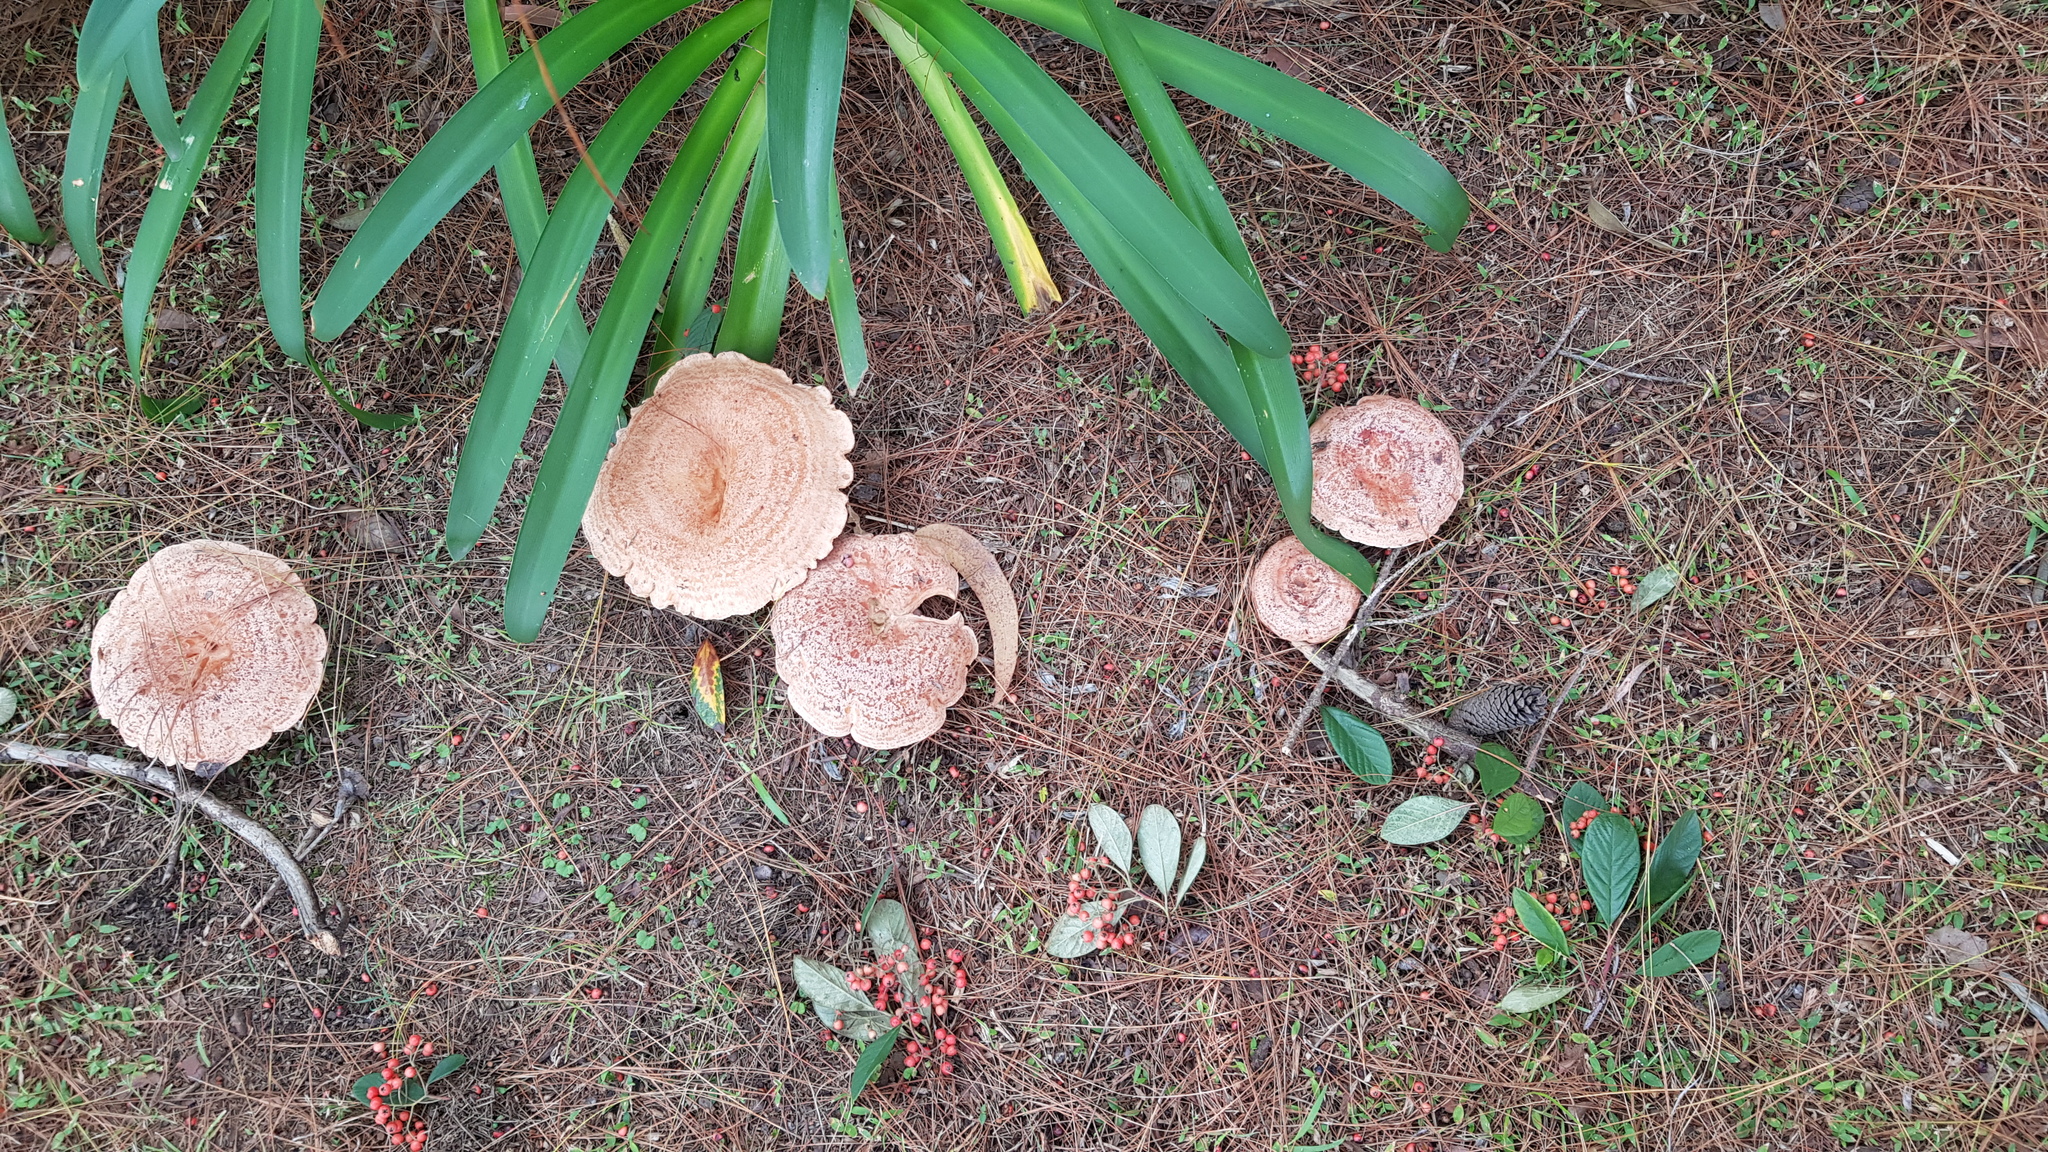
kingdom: Fungi
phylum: Basidiomycota
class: Agaricomycetes
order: Russulales
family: Russulaceae
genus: Lactarius
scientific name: Lactarius deliciosus
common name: Saffron milk-cap
